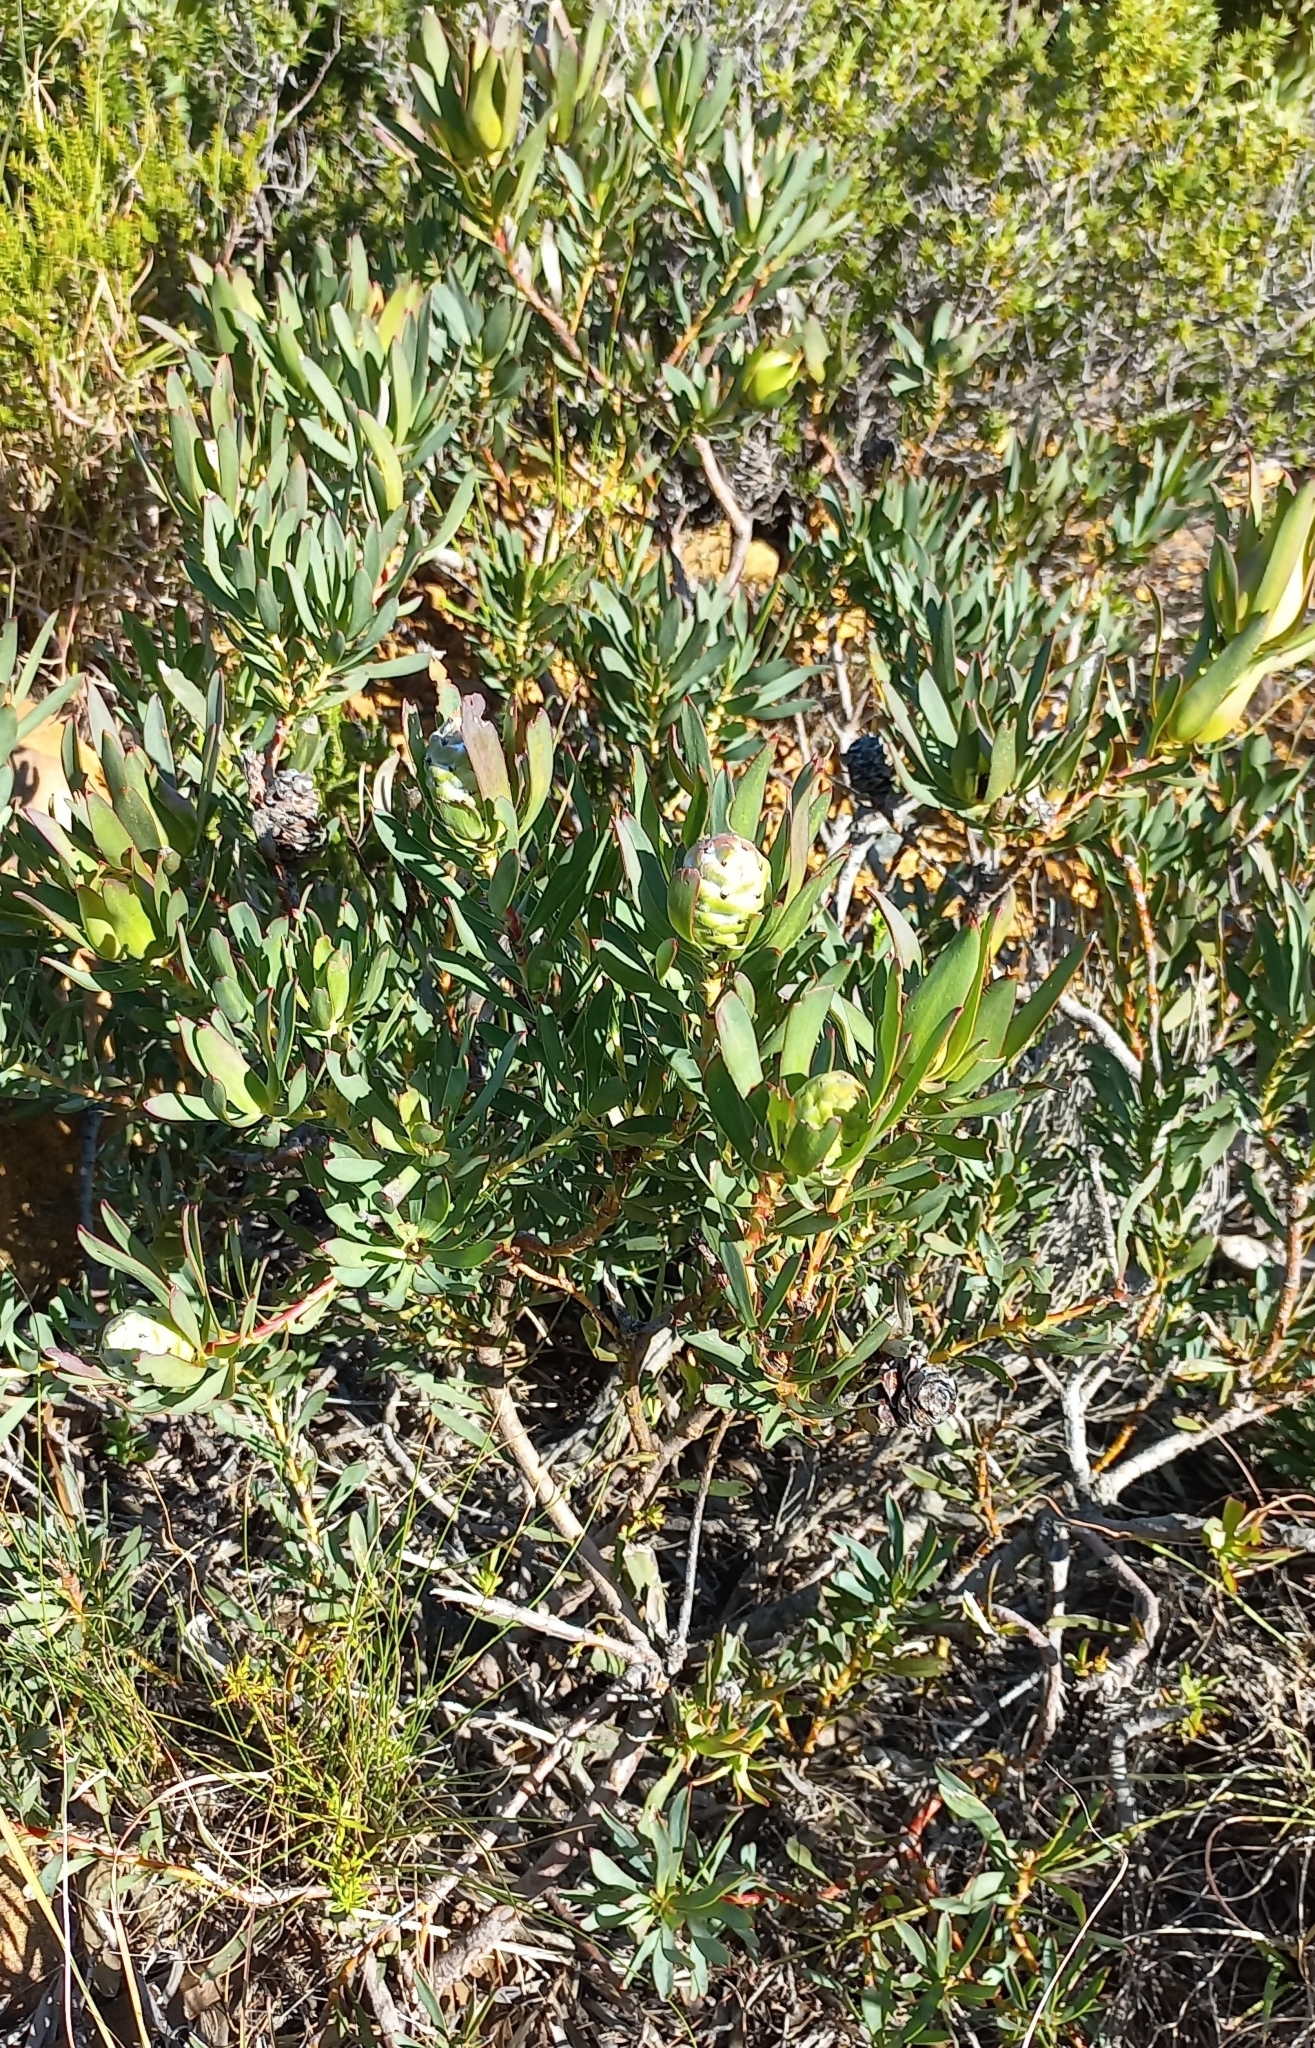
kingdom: Plantae
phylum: Tracheophyta
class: Magnoliopsida
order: Proteales
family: Proteaceae
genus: Leucadendron
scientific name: Leucadendron salignum
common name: Common sunshine conebush
